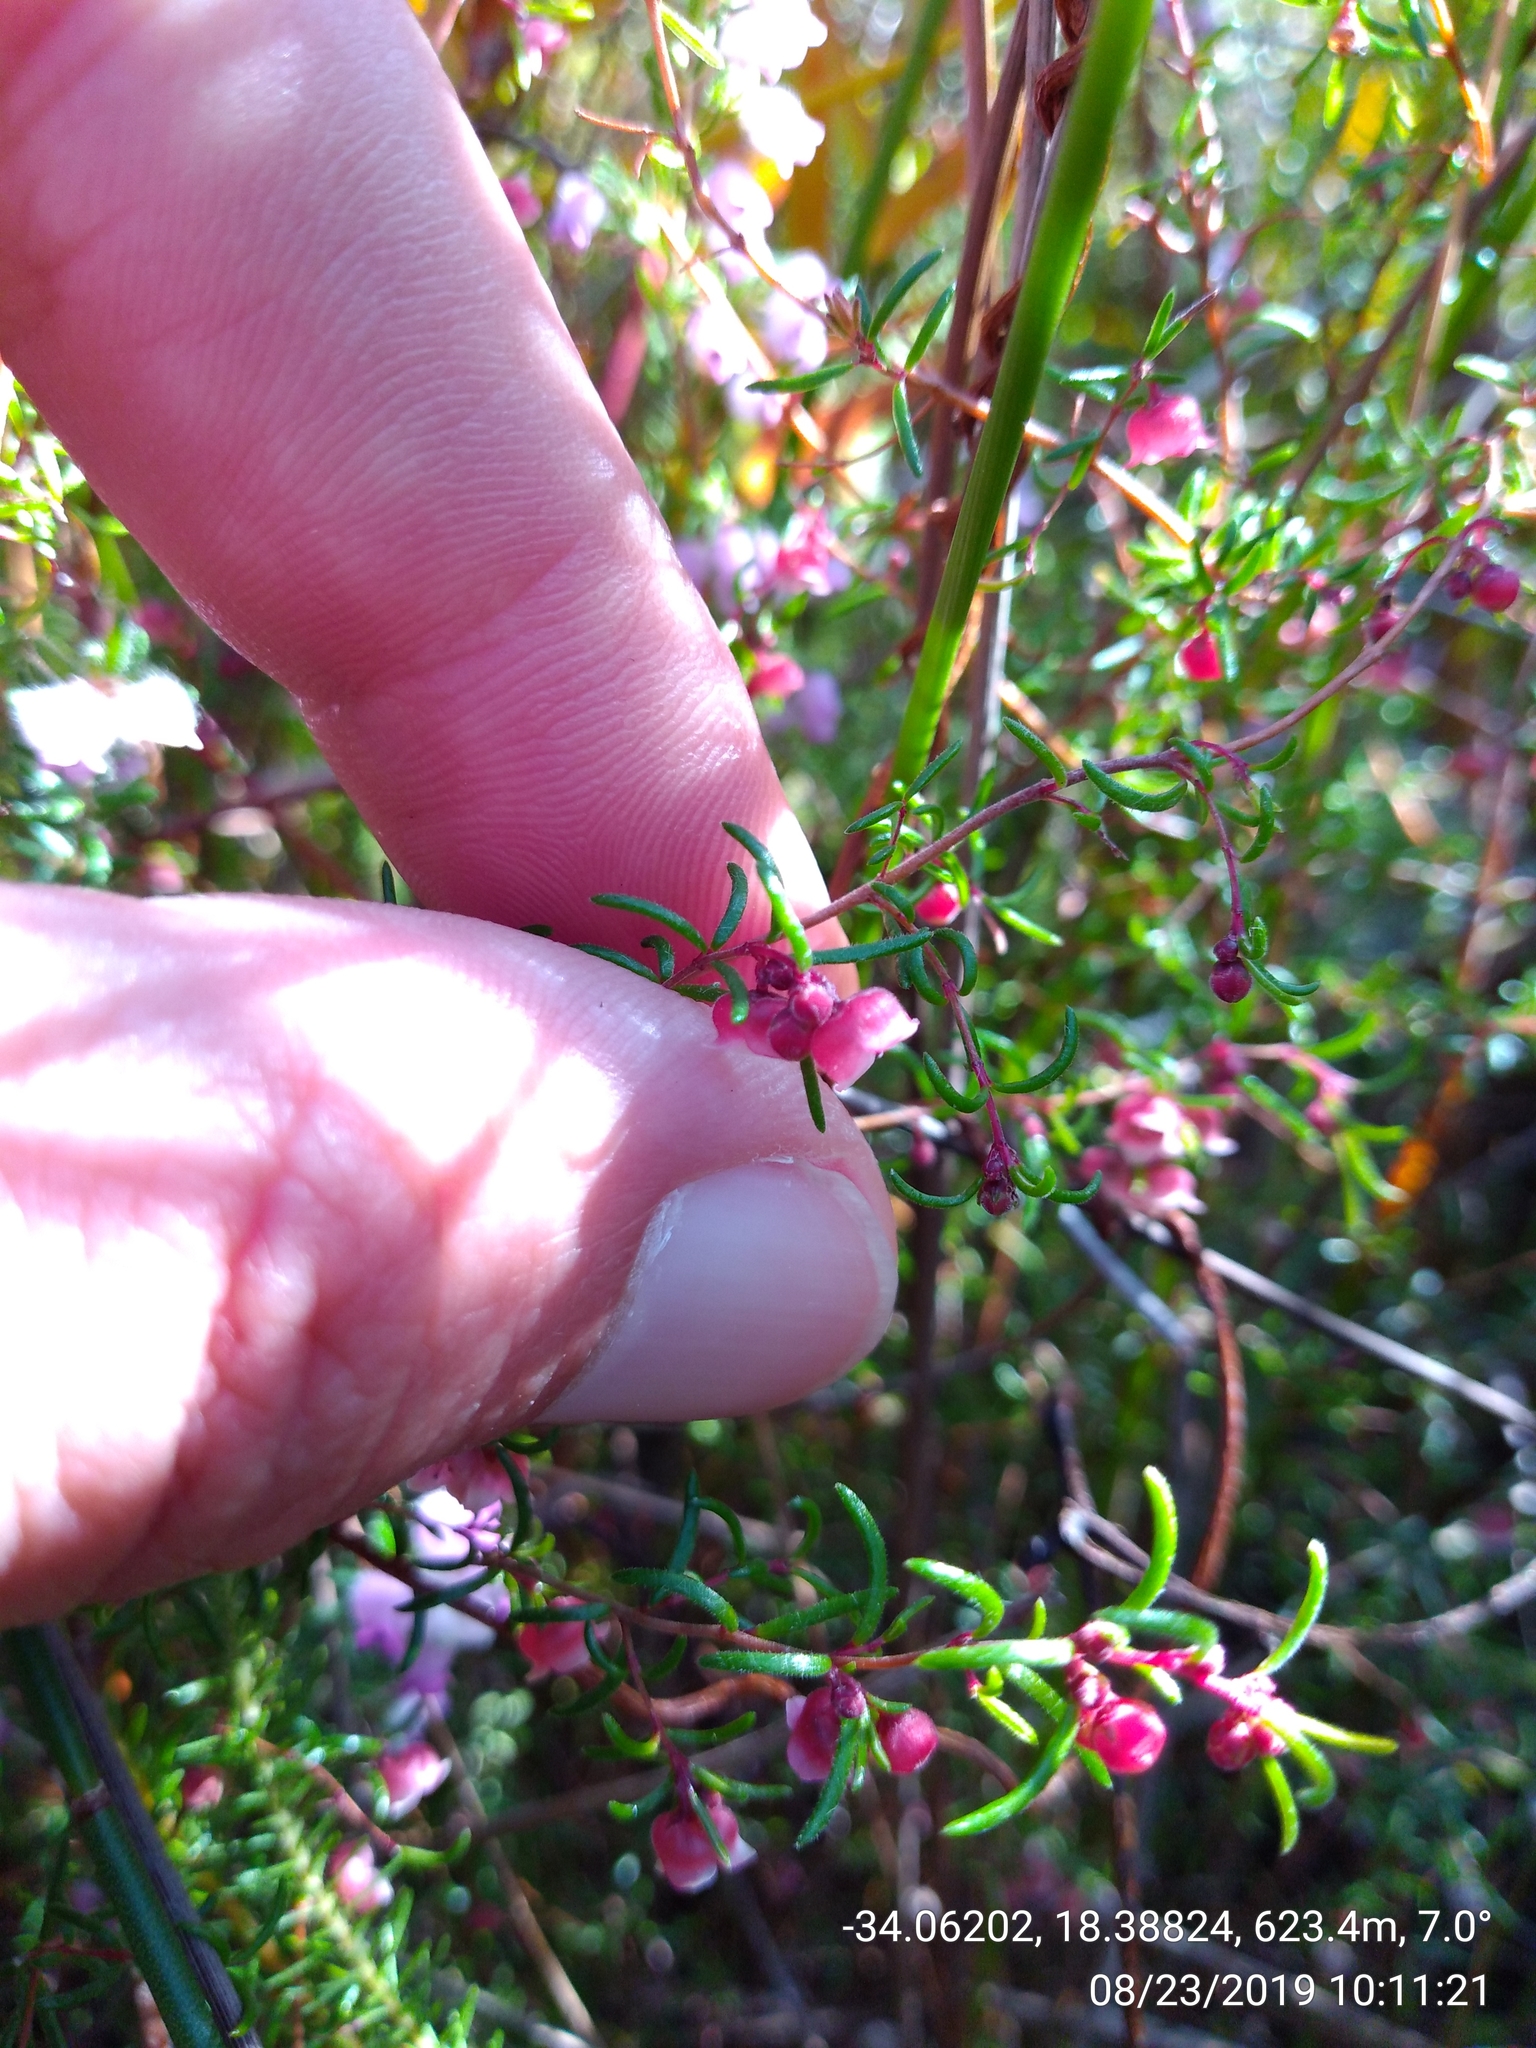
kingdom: Plantae
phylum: Tracheophyta
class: Magnoliopsida
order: Ericales
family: Ericaceae
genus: Erica
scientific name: Erica limosa
